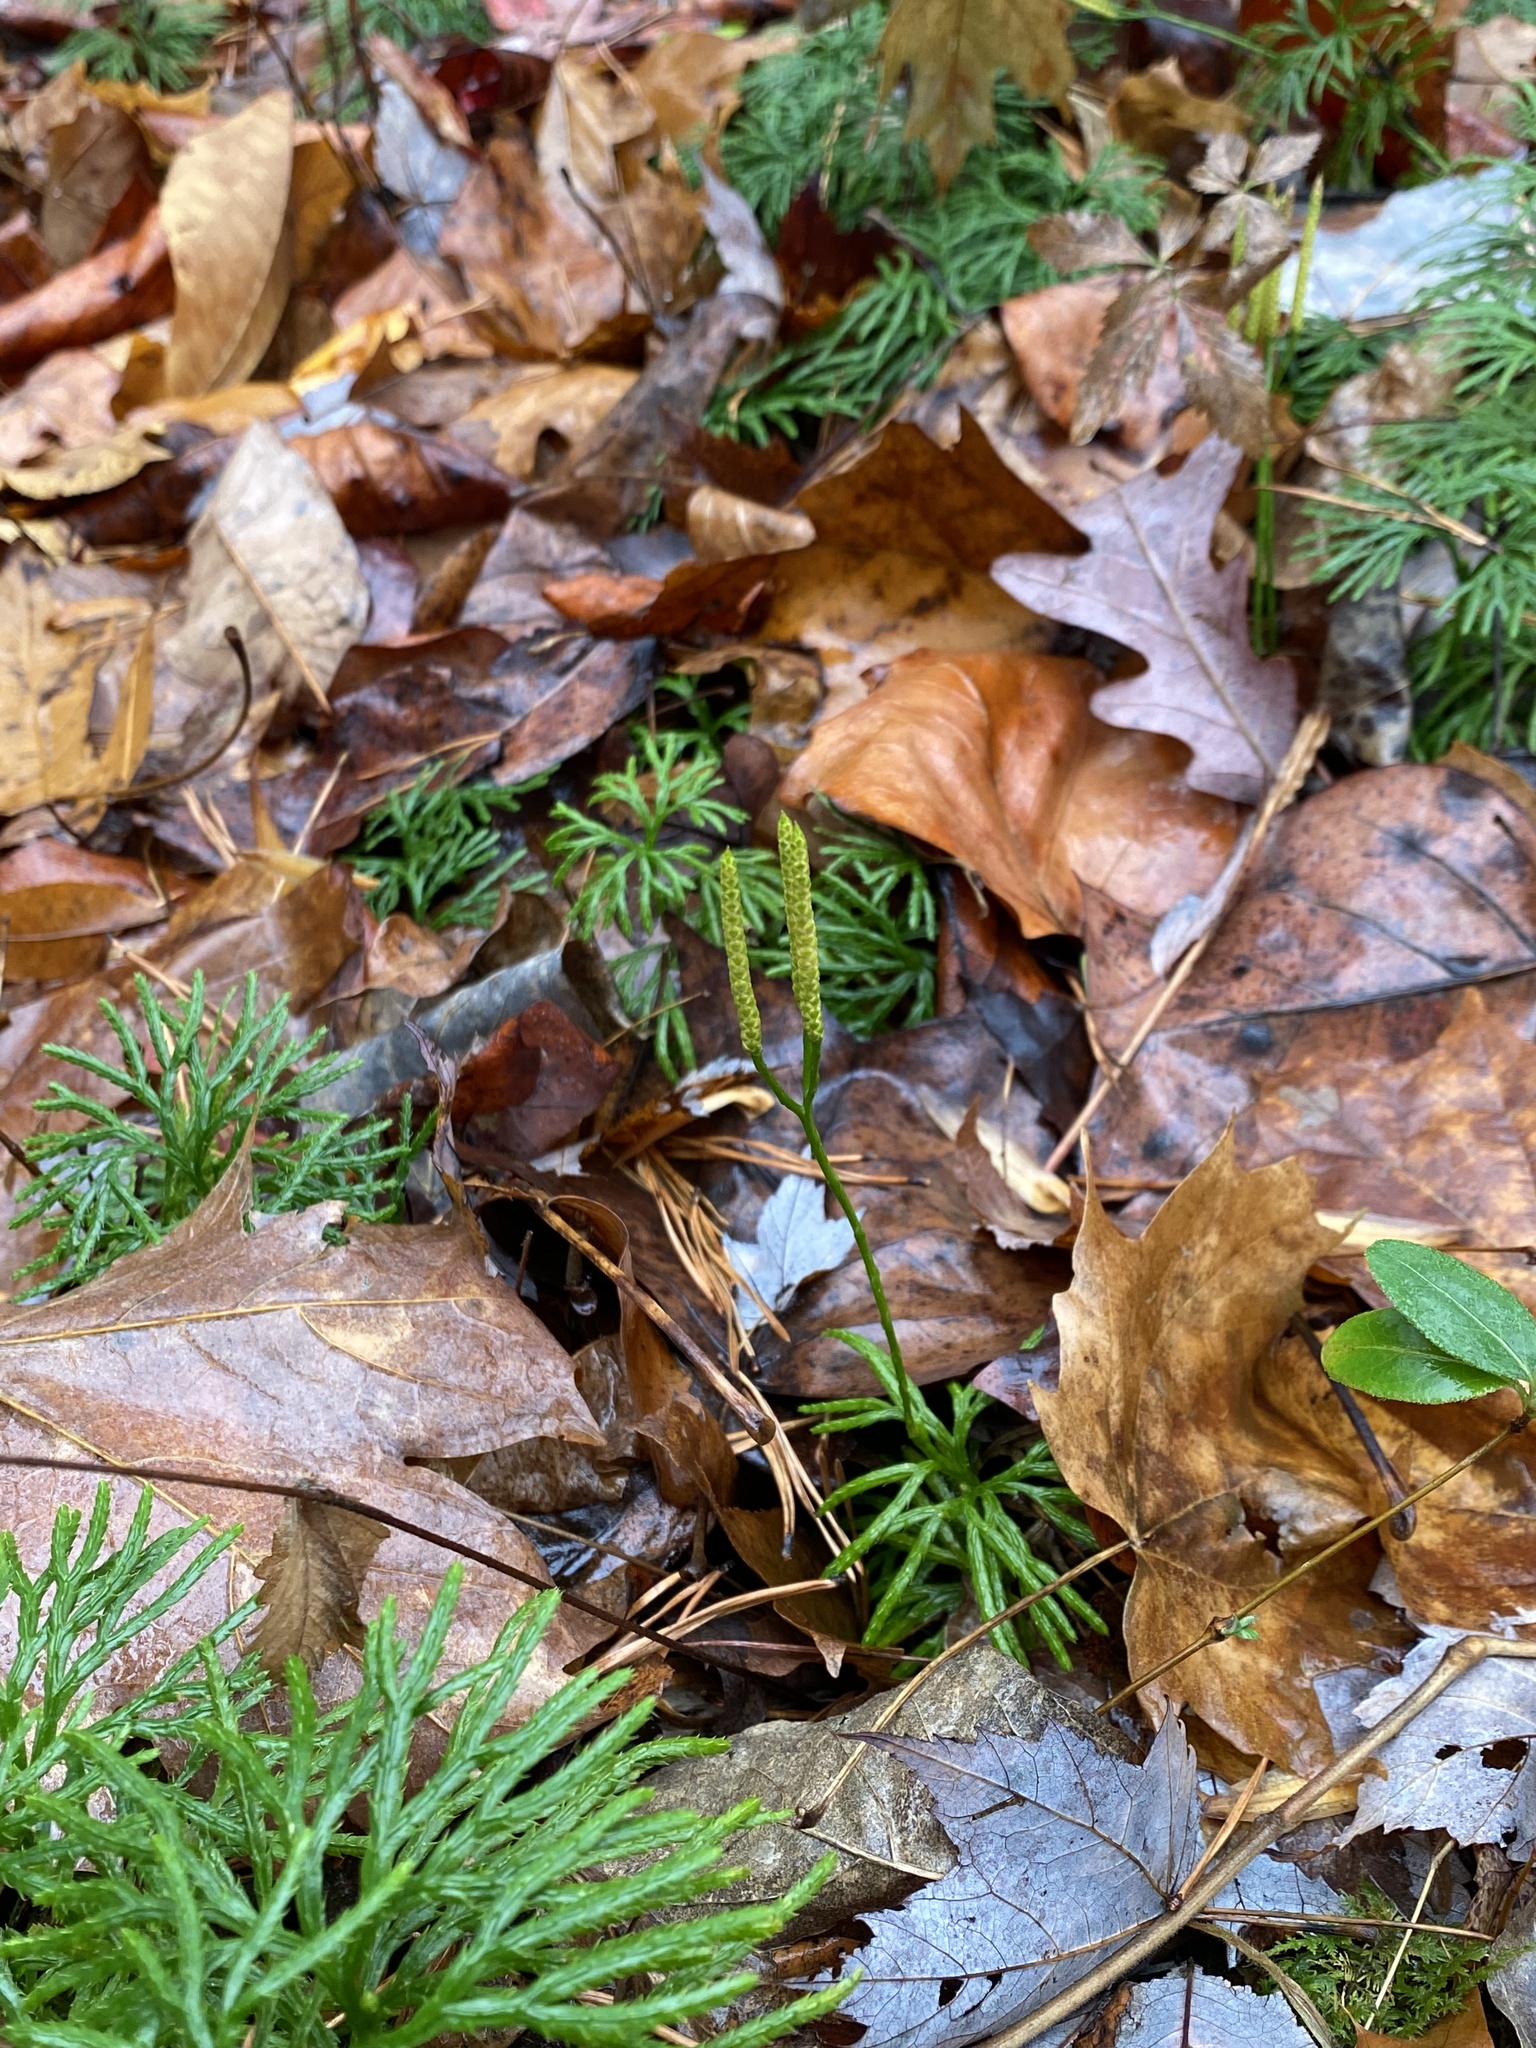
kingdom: Plantae
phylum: Tracheophyta
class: Lycopodiopsida
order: Lycopodiales
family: Lycopodiaceae
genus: Diphasiastrum
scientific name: Diphasiastrum digitatum
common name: Southern running-pine
